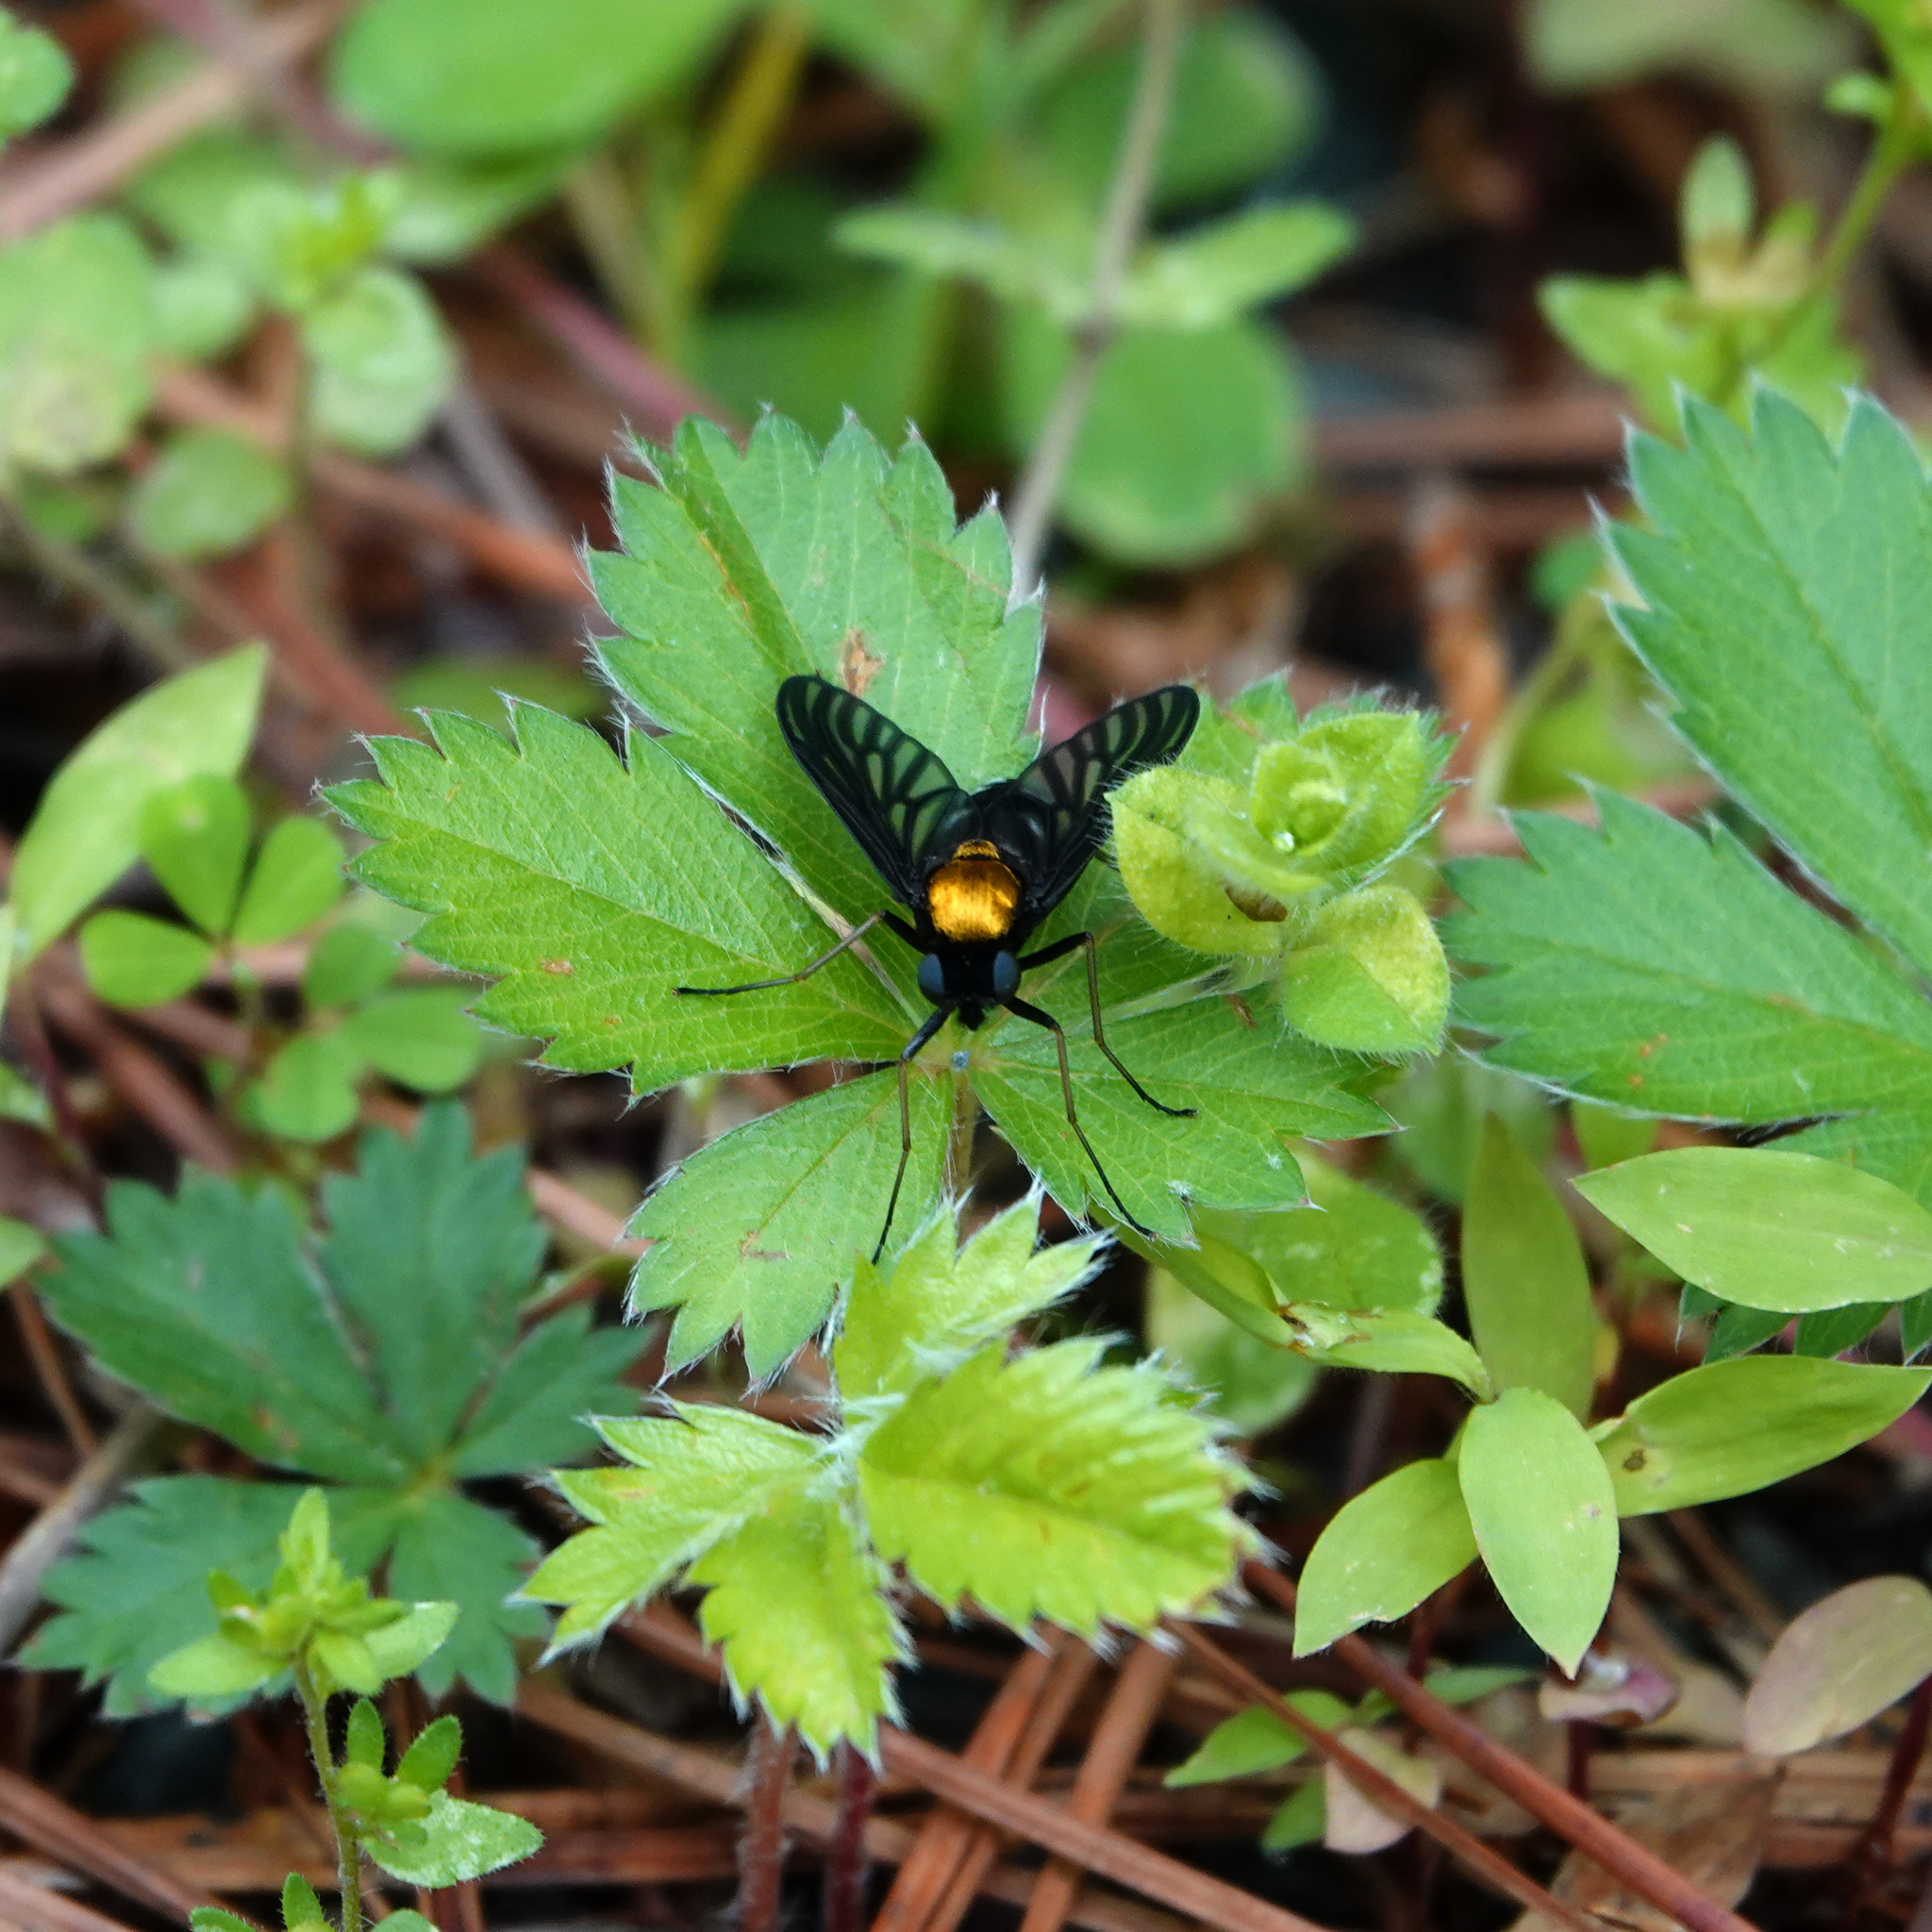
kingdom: Animalia
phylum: Arthropoda
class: Insecta
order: Diptera
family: Rhagionidae
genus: Chrysopilus
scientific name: Chrysopilus thoracicus
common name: Golden-backed snipe fly
